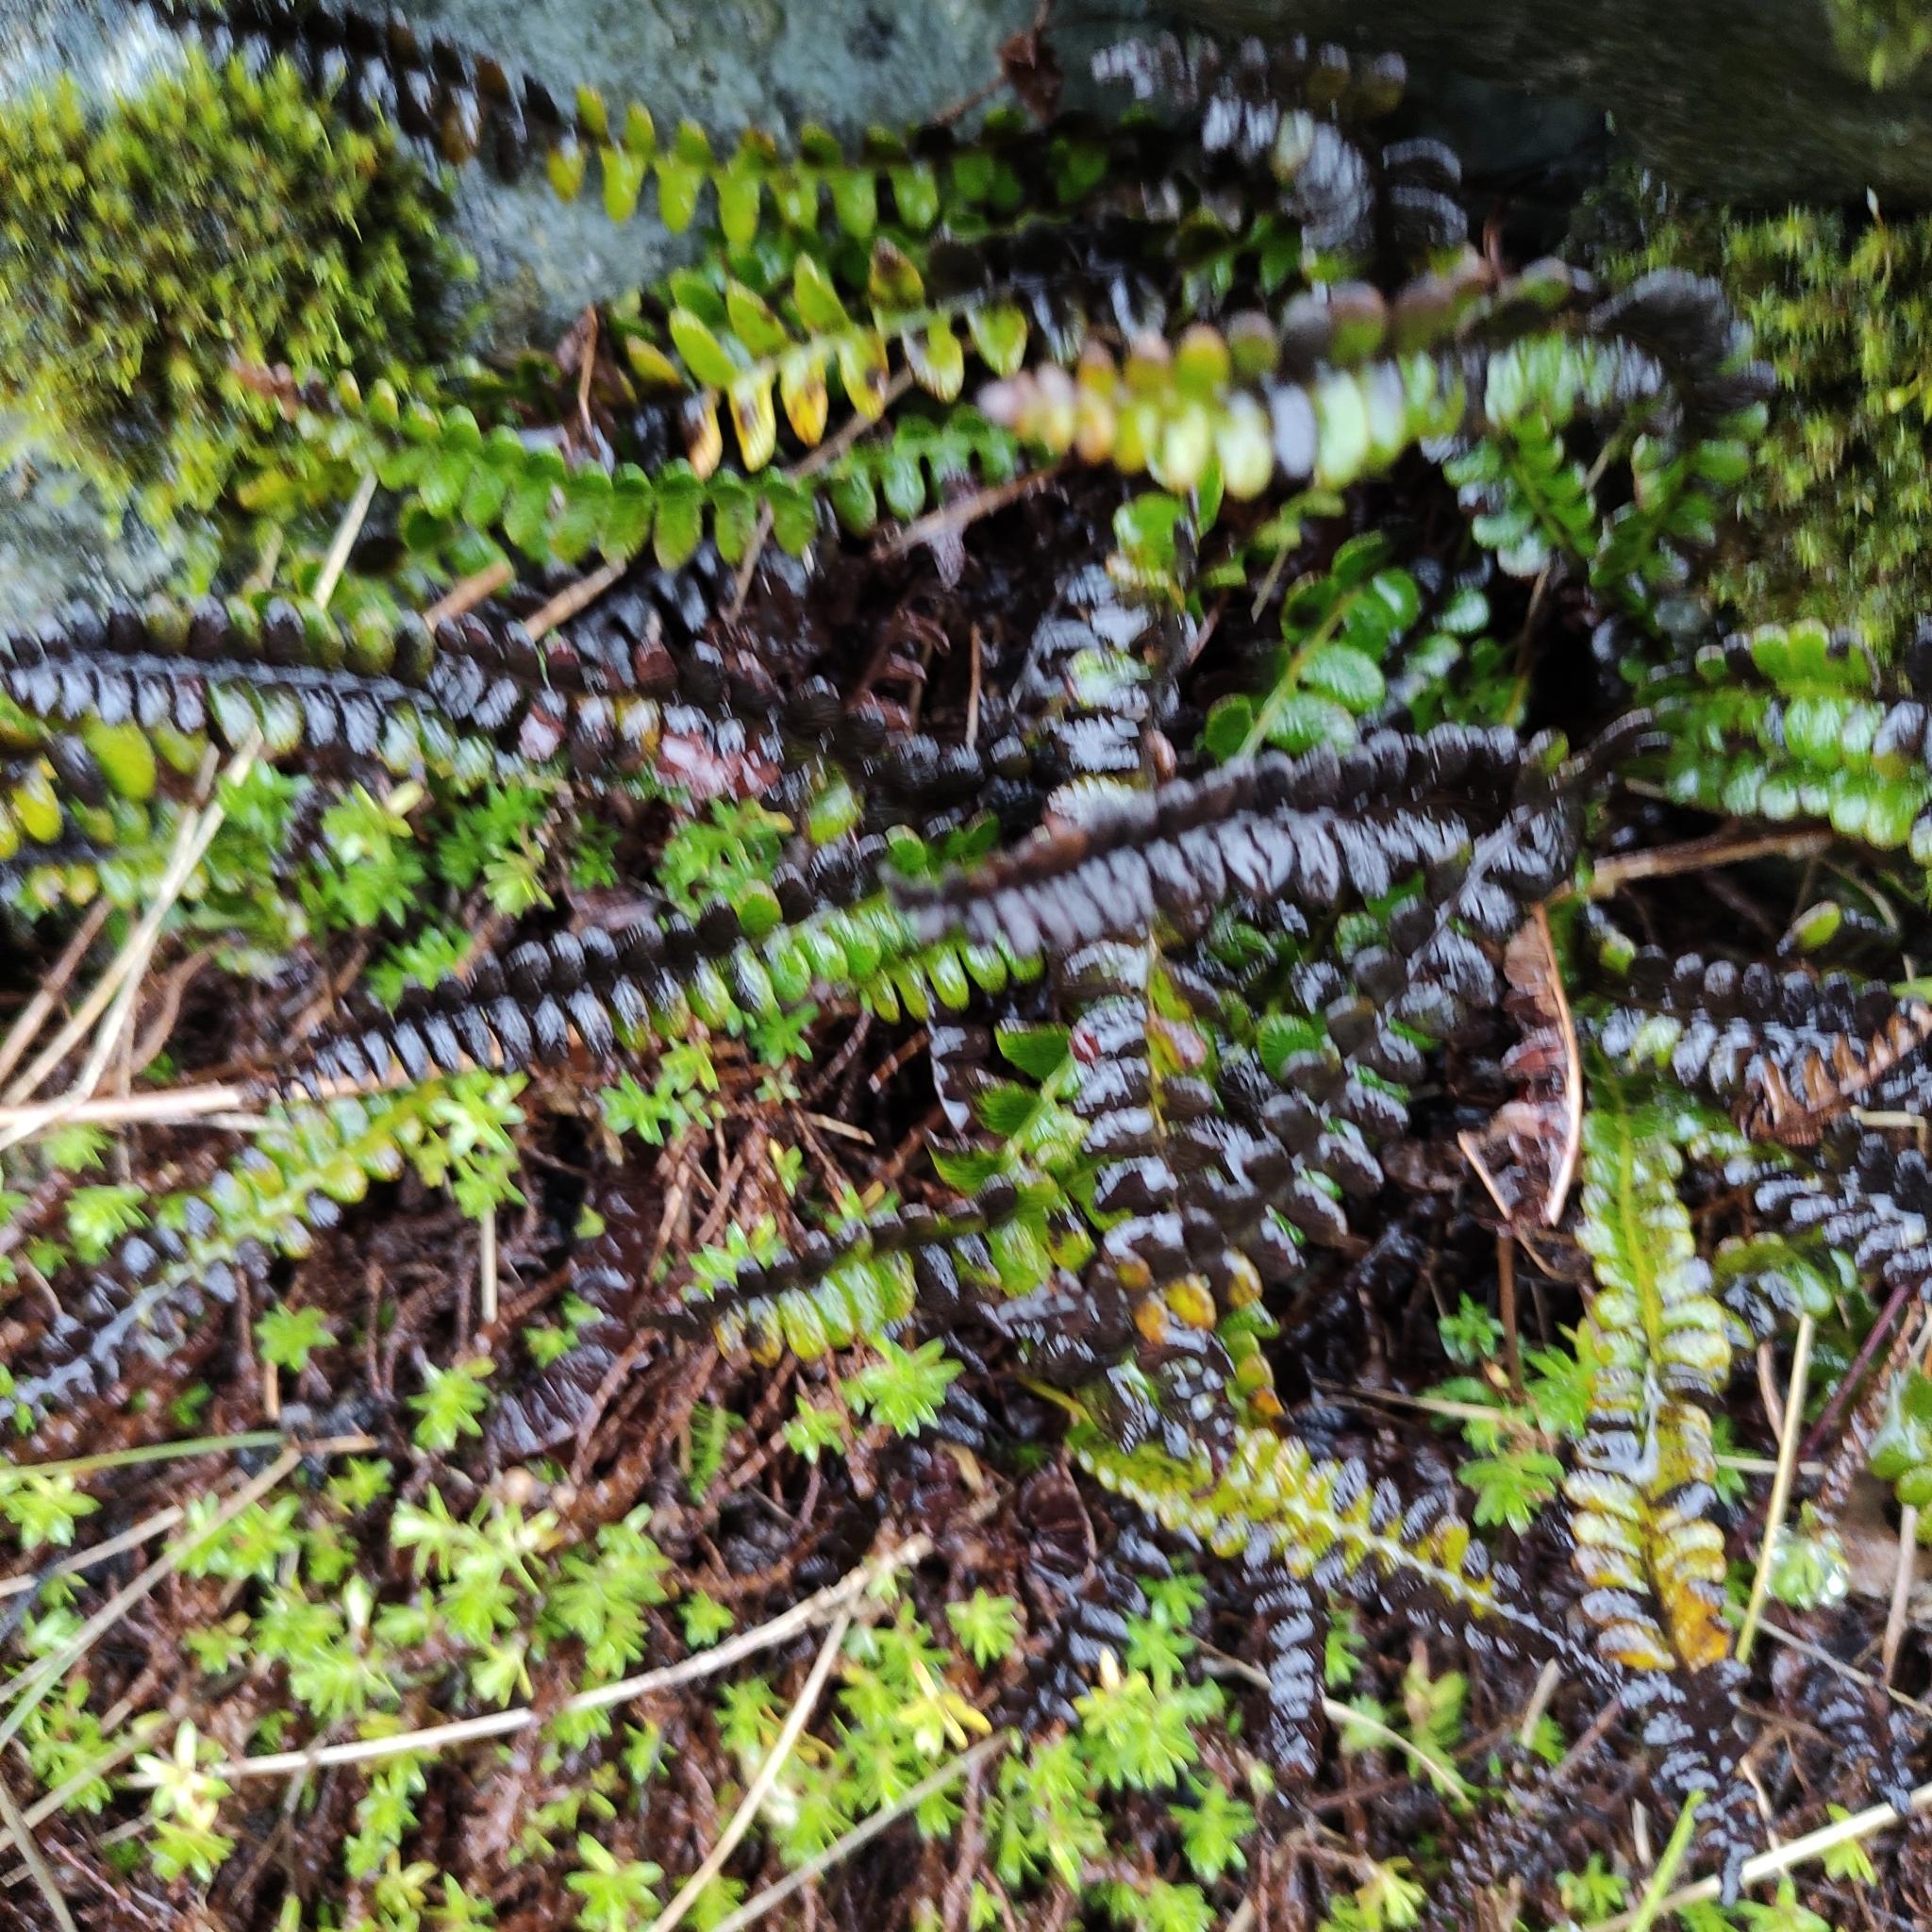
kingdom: Plantae
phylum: Tracheophyta
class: Polypodiopsida
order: Polypodiales
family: Blechnaceae
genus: Austroblechnum
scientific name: Austroblechnum penna-marina
